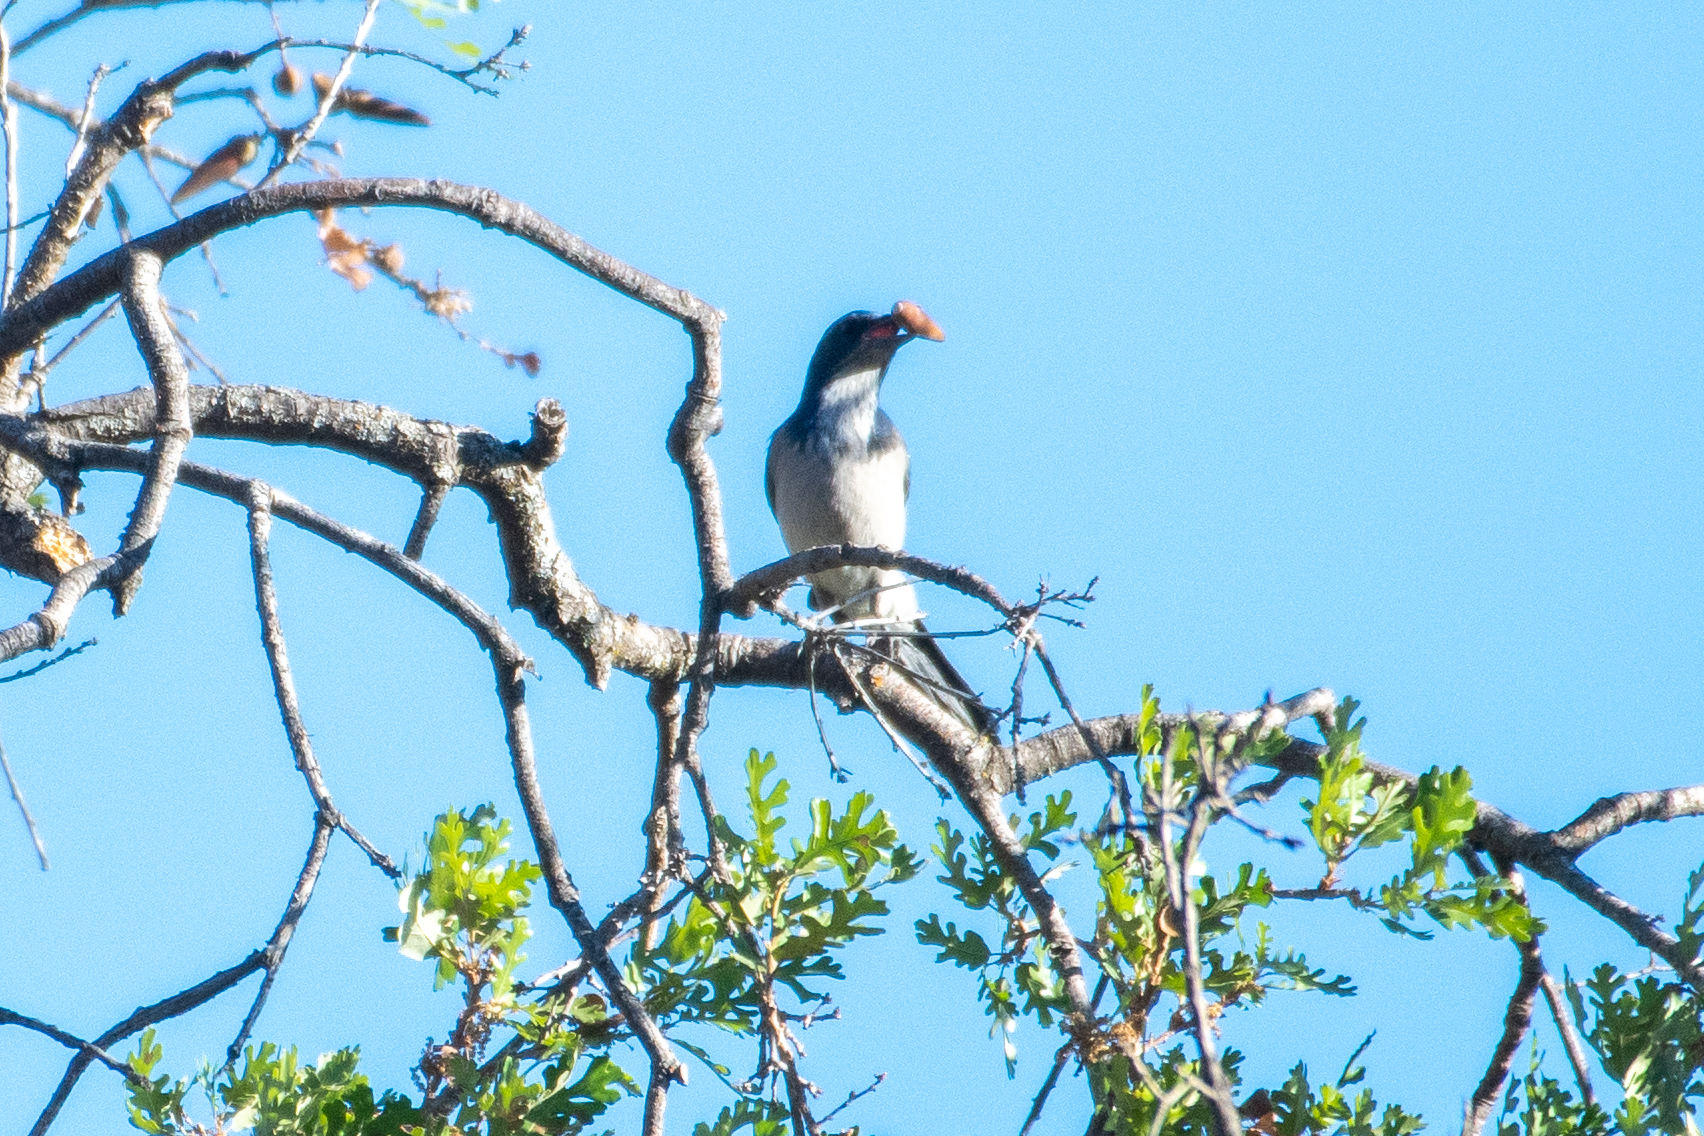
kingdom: Animalia
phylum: Chordata
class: Aves
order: Passeriformes
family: Corvidae
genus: Aphelocoma
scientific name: Aphelocoma californica
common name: California scrub-jay
